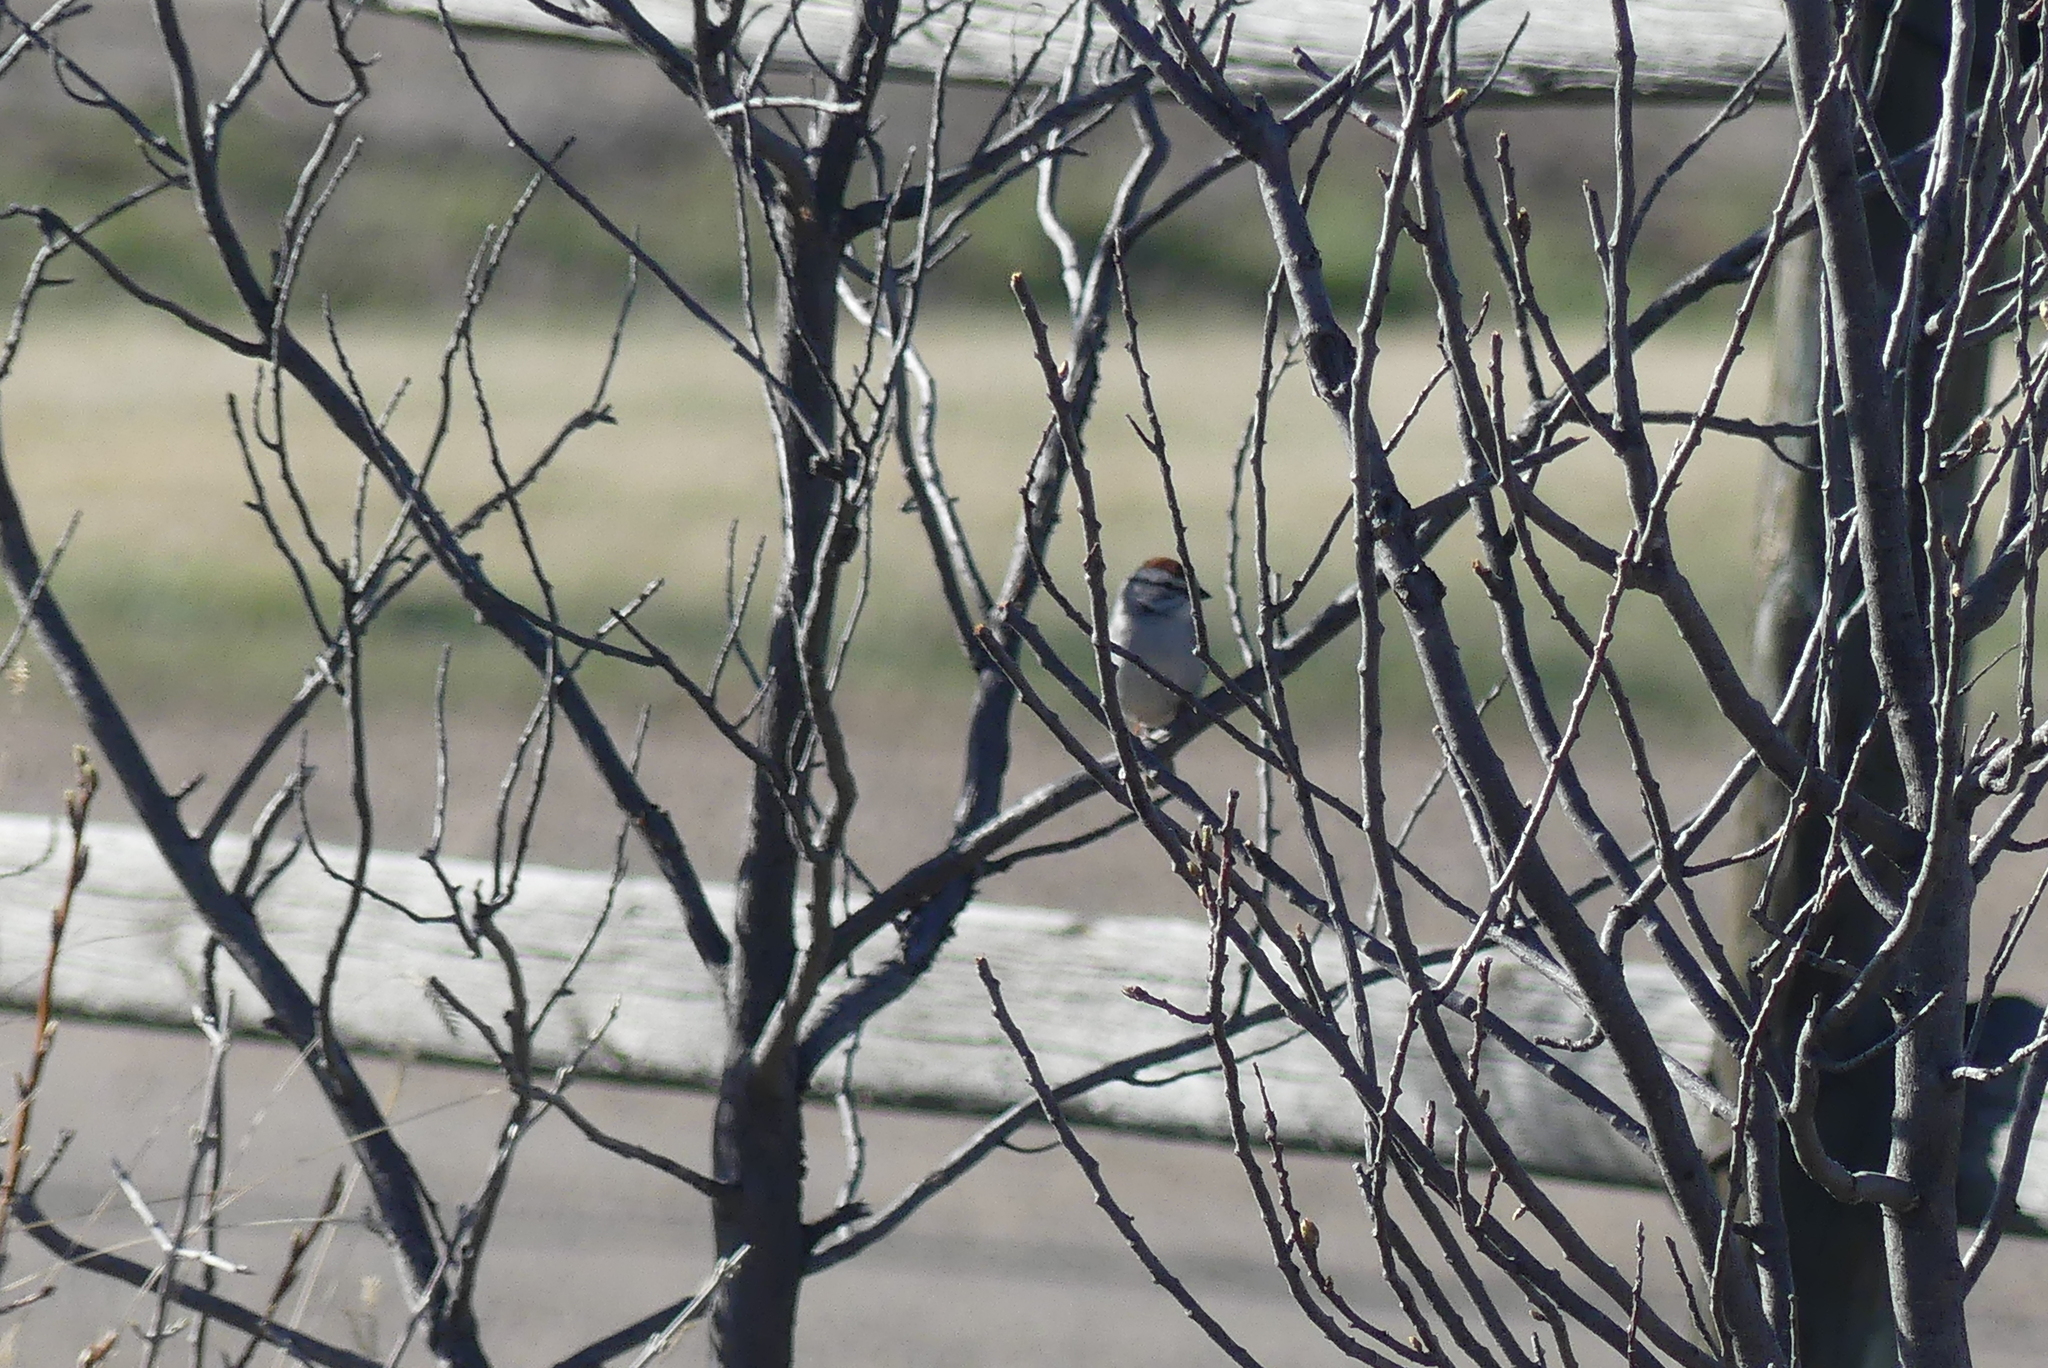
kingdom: Animalia
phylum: Chordata
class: Aves
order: Passeriformes
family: Passerellidae
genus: Spizella
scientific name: Spizella passerina
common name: Chipping sparrow
